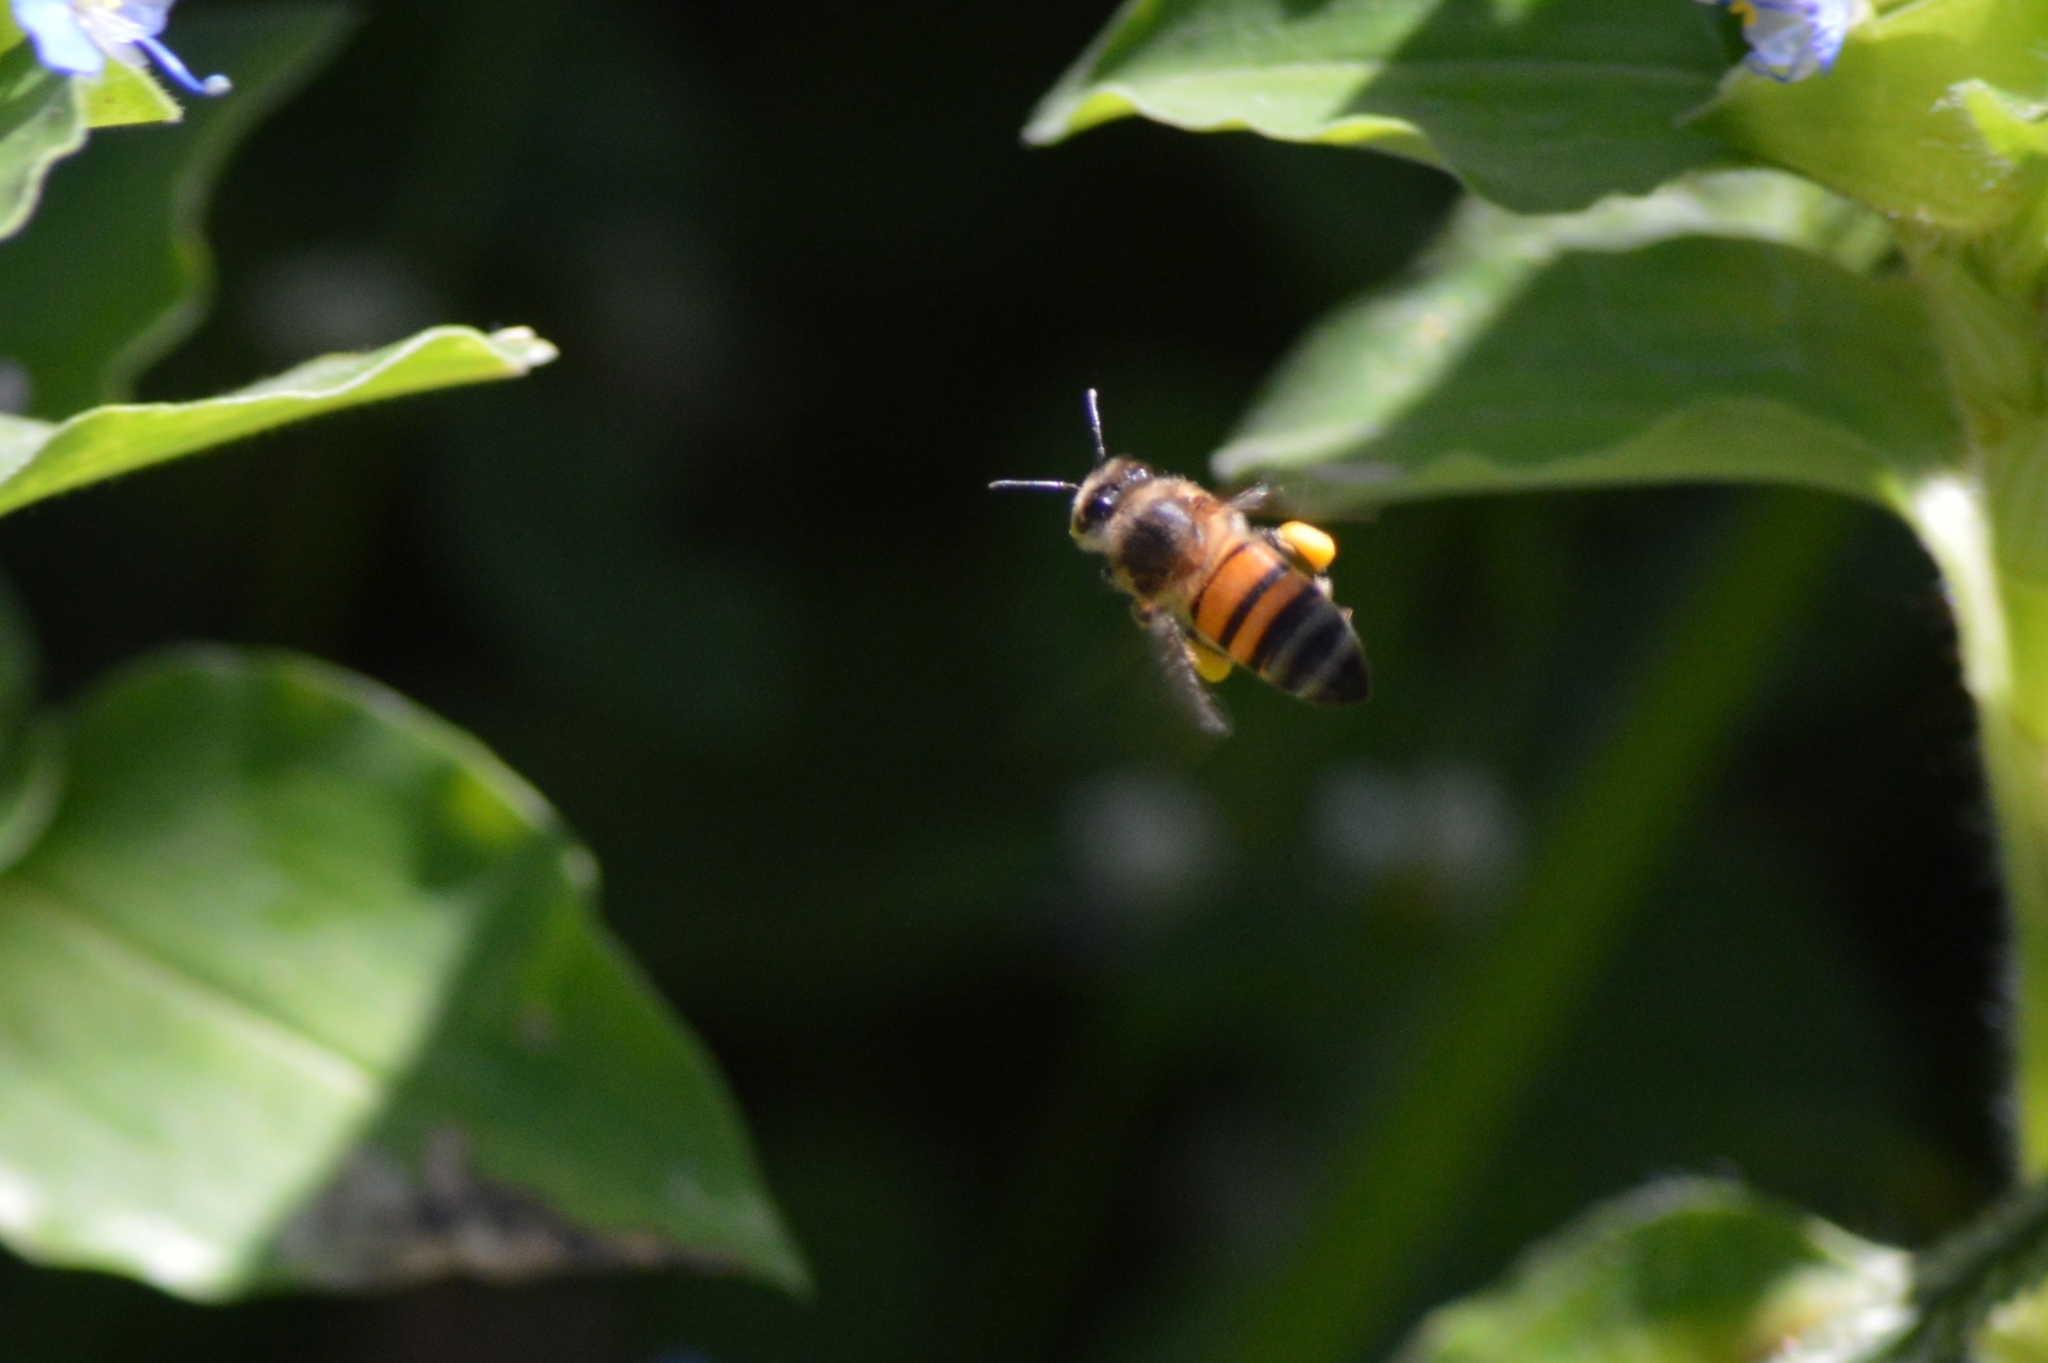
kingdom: Animalia
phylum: Arthropoda
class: Insecta
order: Hymenoptera
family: Apidae
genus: Apis
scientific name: Apis mellifera
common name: Honey bee
